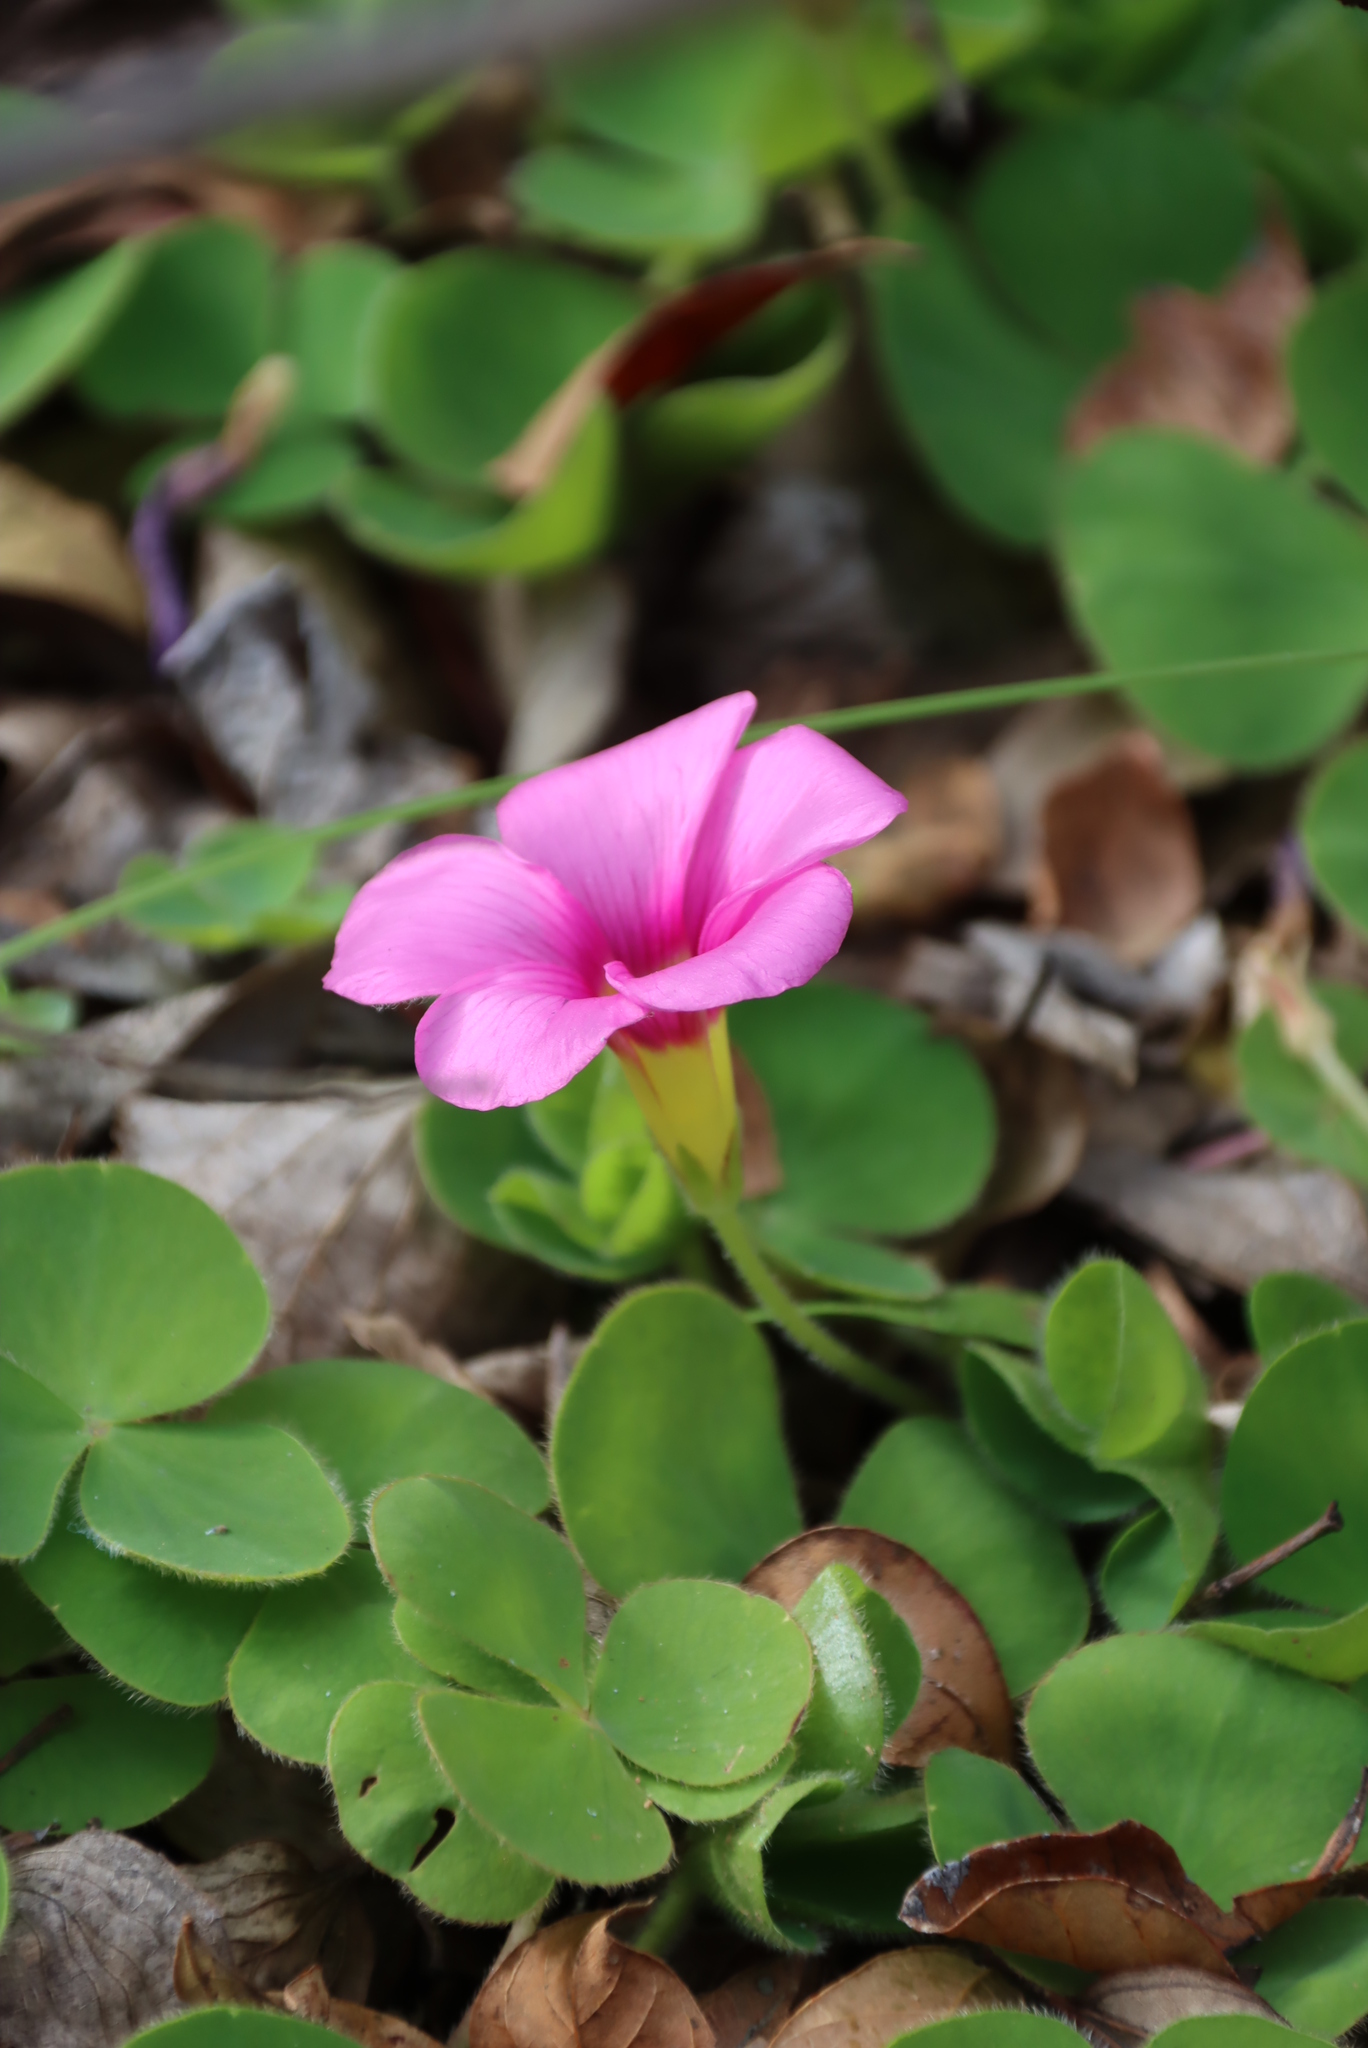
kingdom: Plantae
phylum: Tracheophyta
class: Magnoliopsida
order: Oxalidales
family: Oxalidaceae
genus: Oxalis
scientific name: Oxalis purpurea
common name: Purple woodsorrel
